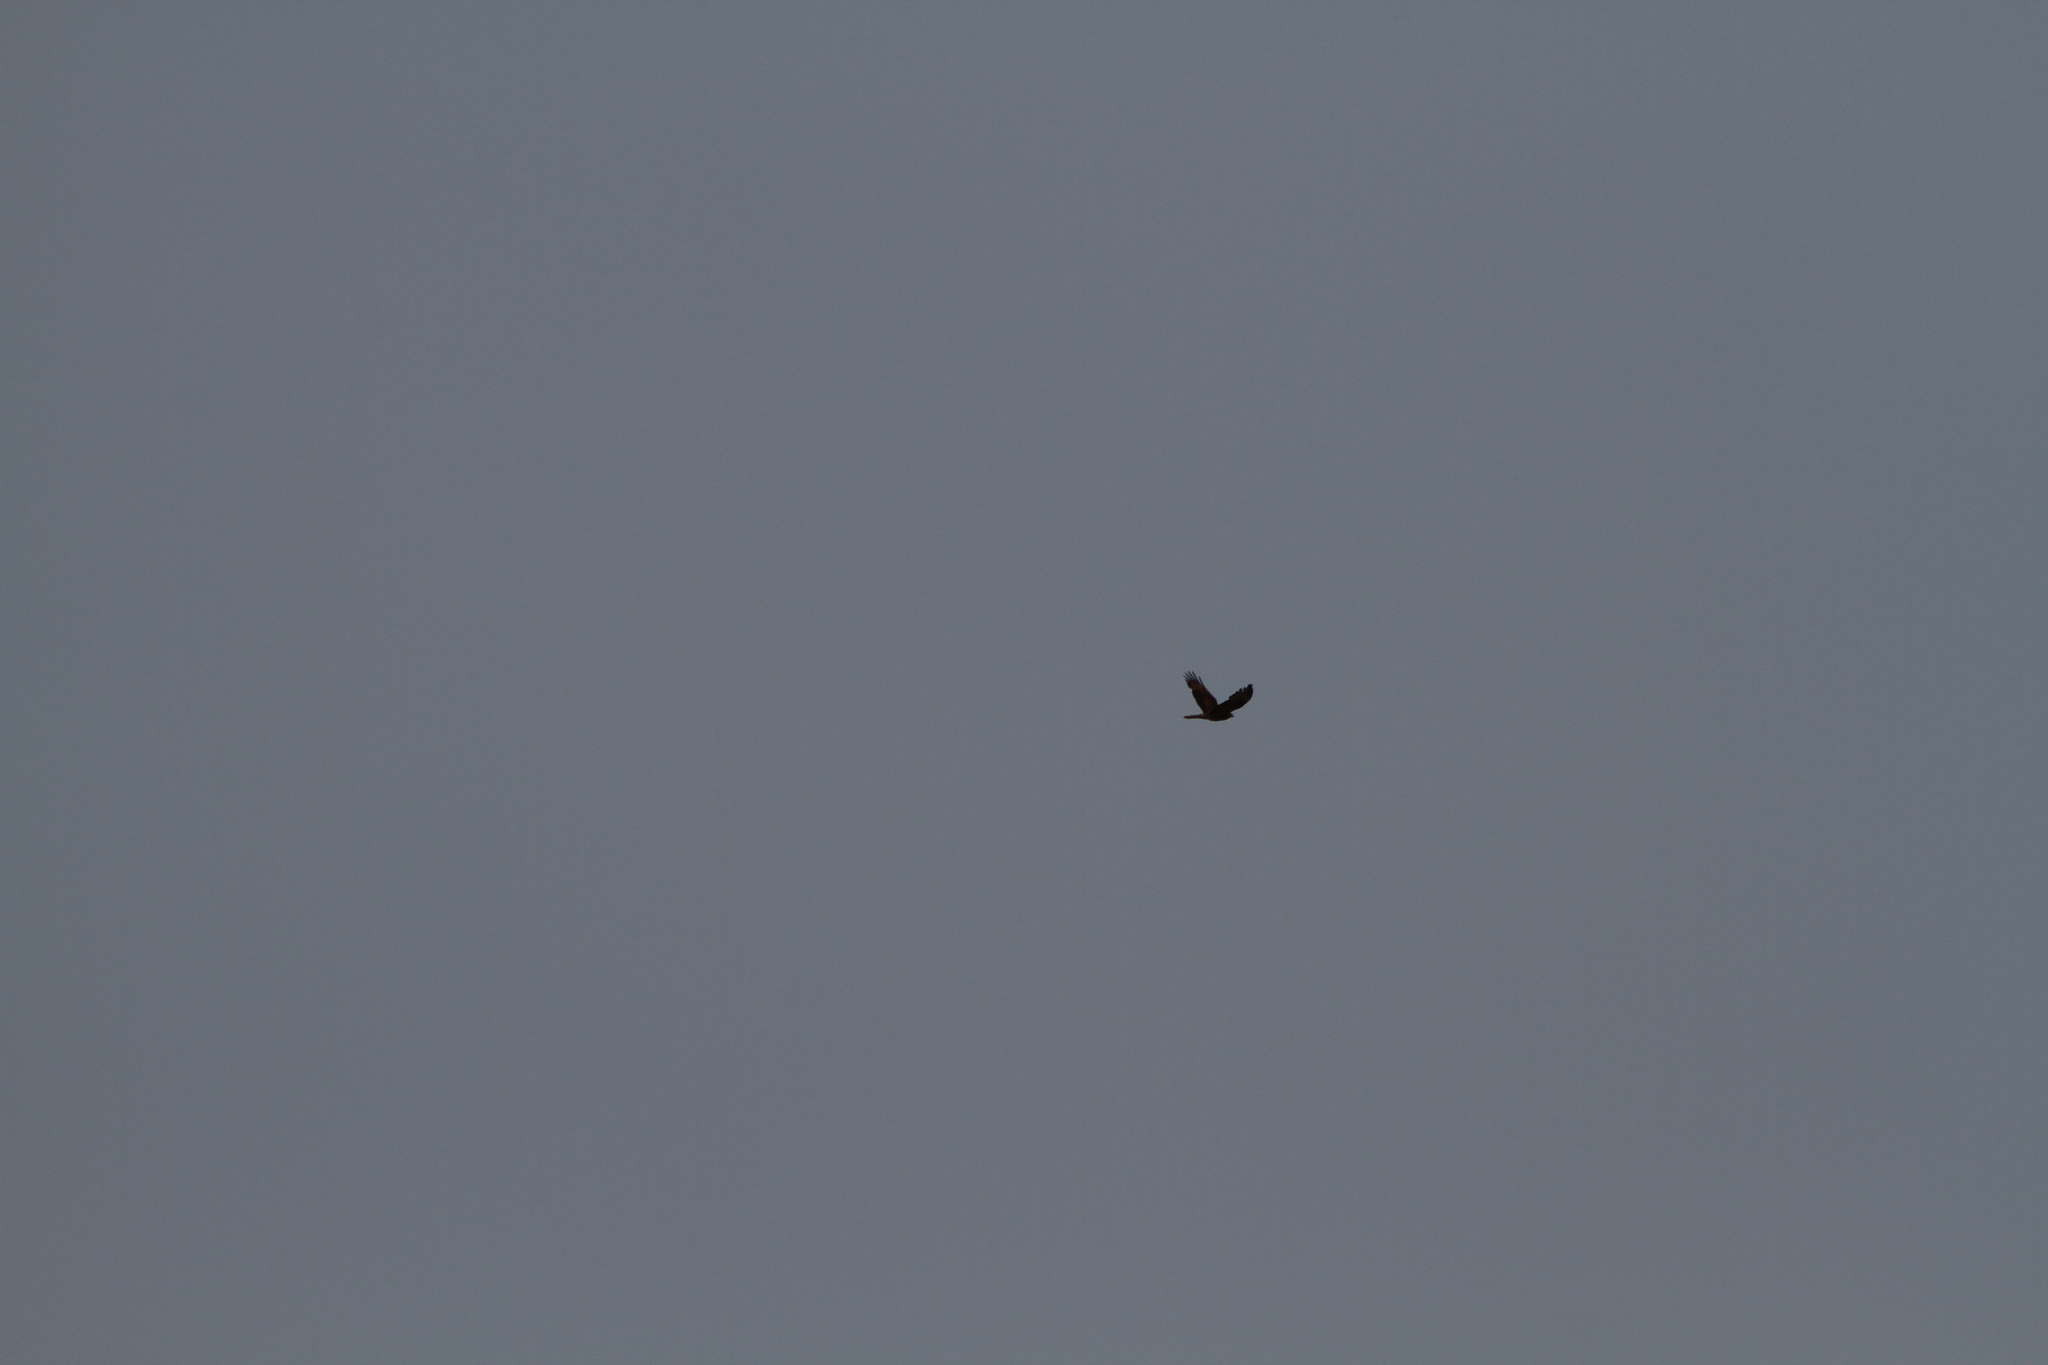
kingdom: Animalia
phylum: Chordata
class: Aves
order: Accipitriformes
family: Accipitridae
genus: Pernis
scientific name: Pernis apivorus
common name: European honey buzzard
